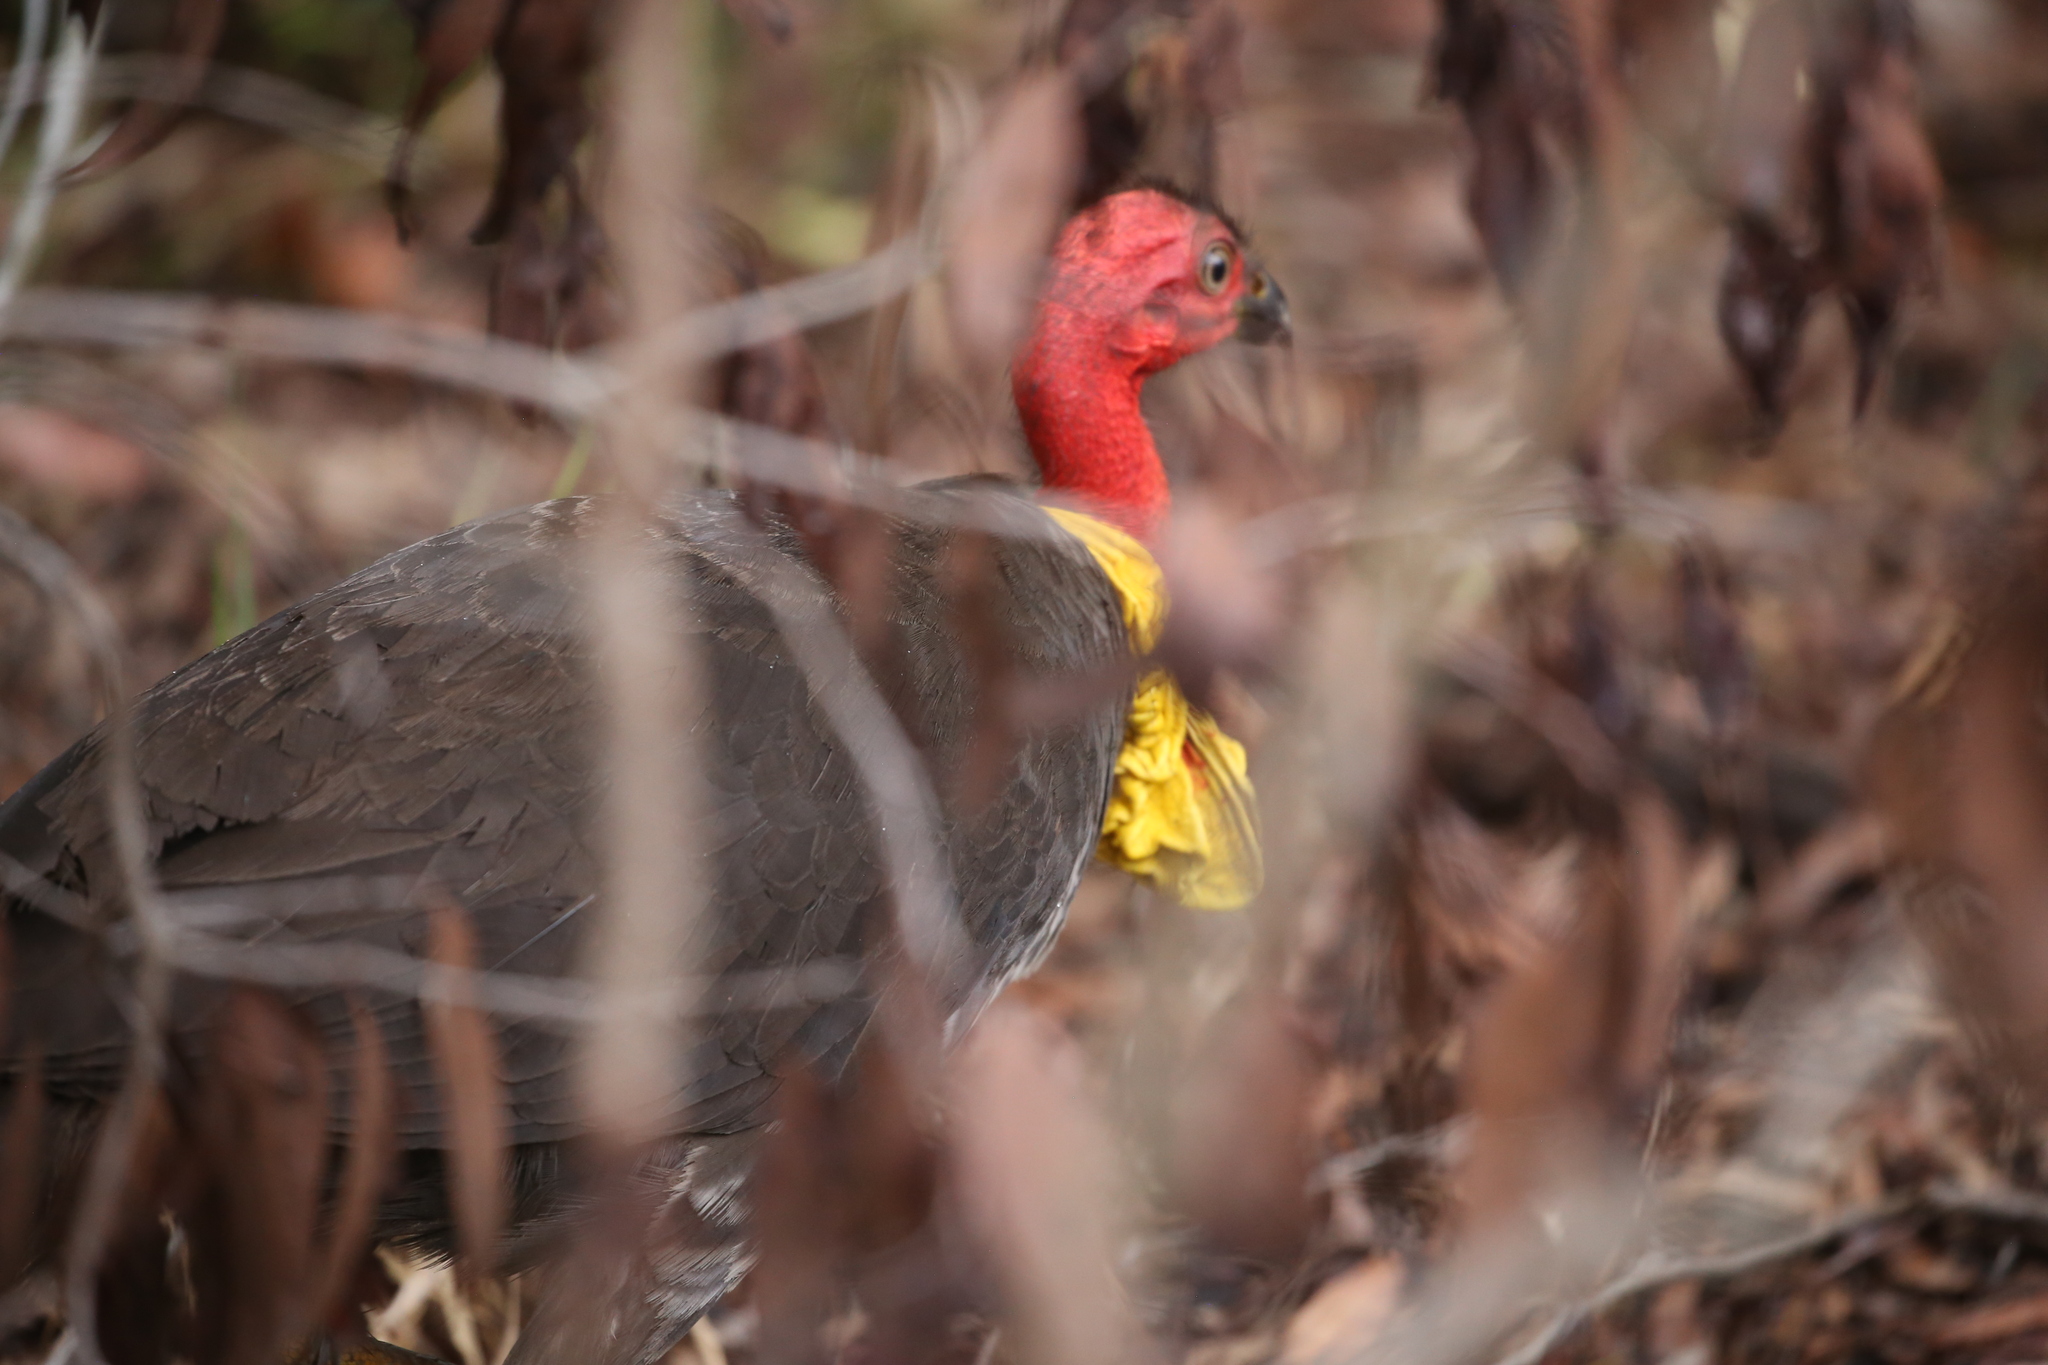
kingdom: Animalia
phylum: Chordata
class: Aves
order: Galliformes
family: Megapodiidae
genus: Alectura
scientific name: Alectura lathami
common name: Australian brushturkey
